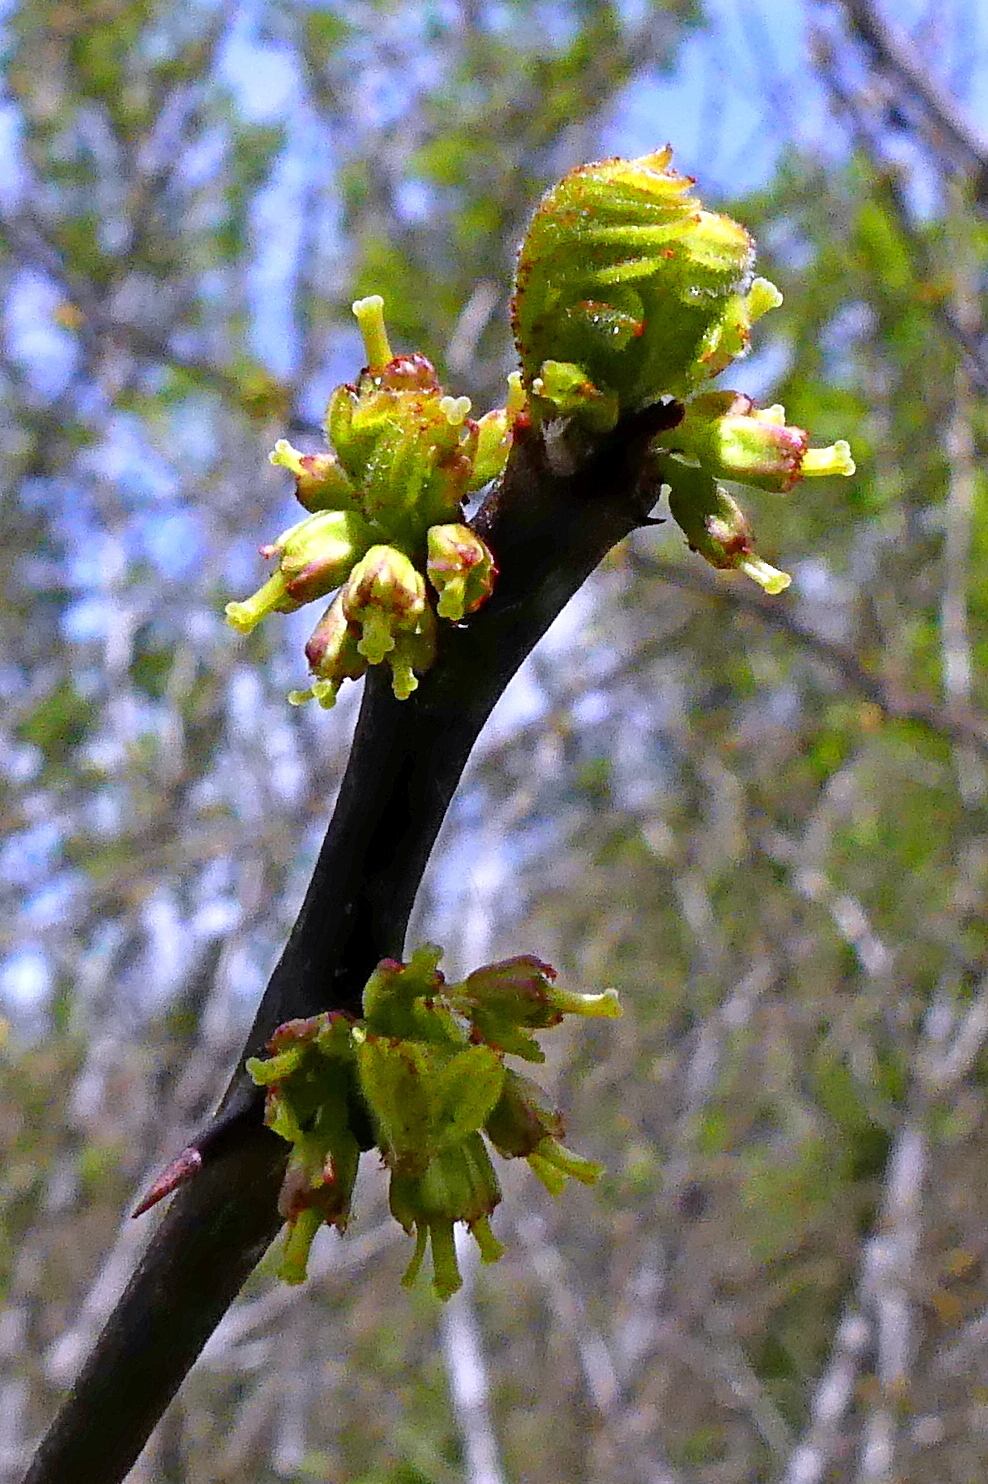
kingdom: Plantae
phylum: Tracheophyta
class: Magnoliopsida
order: Sapindales
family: Rutaceae
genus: Zanthoxylum
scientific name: Zanthoxylum americanum
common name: Northern prickly-ash
